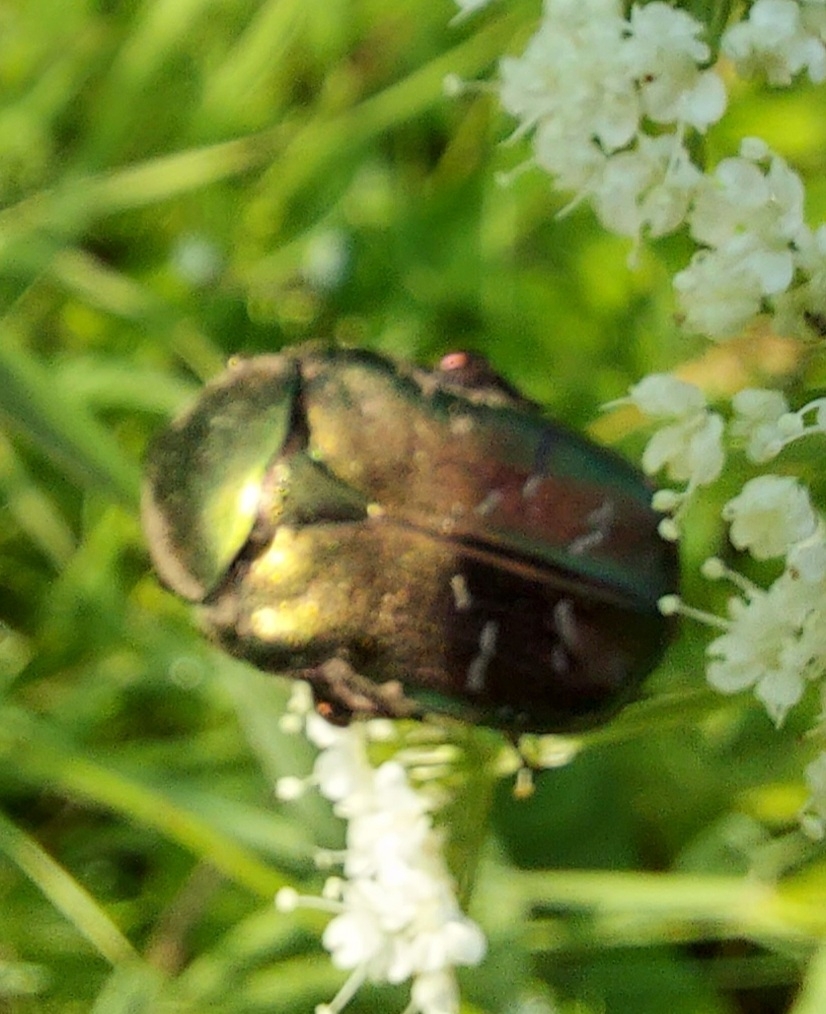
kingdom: Animalia
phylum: Arthropoda
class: Insecta
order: Coleoptera
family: Scarabaeidae
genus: Protaetia
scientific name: Protaetia cuprea
